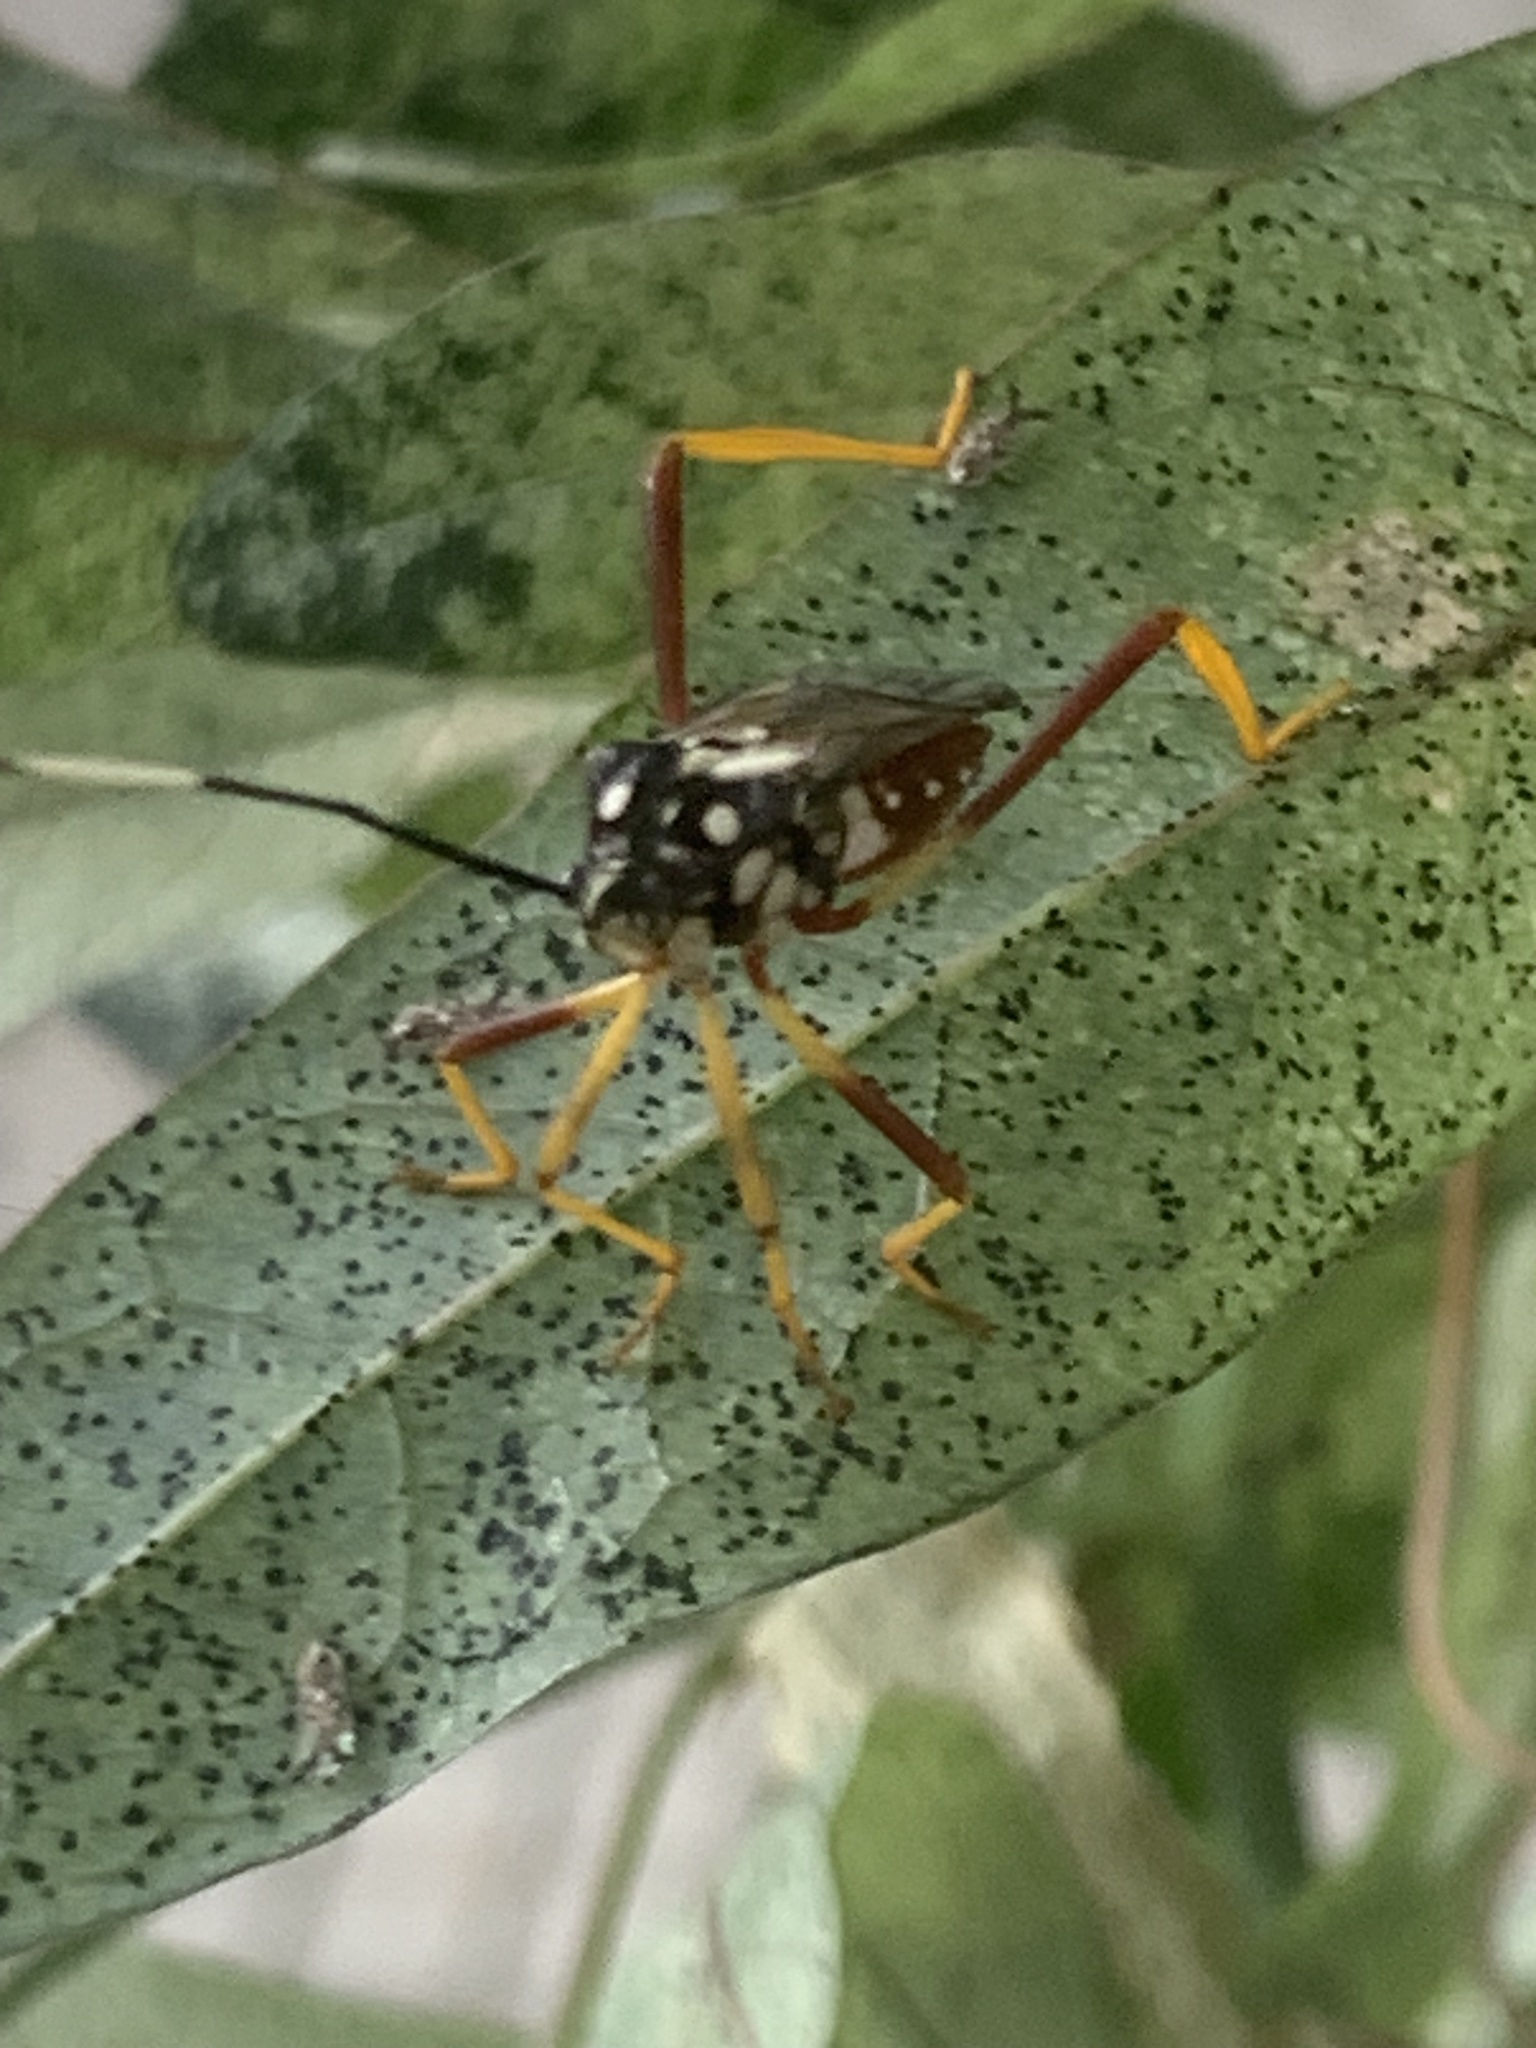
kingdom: Animalia
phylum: Arthropoda
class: Insecta
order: Hemiptera
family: Coreidae
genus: Holhymenia
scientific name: Holhymenia histrio
